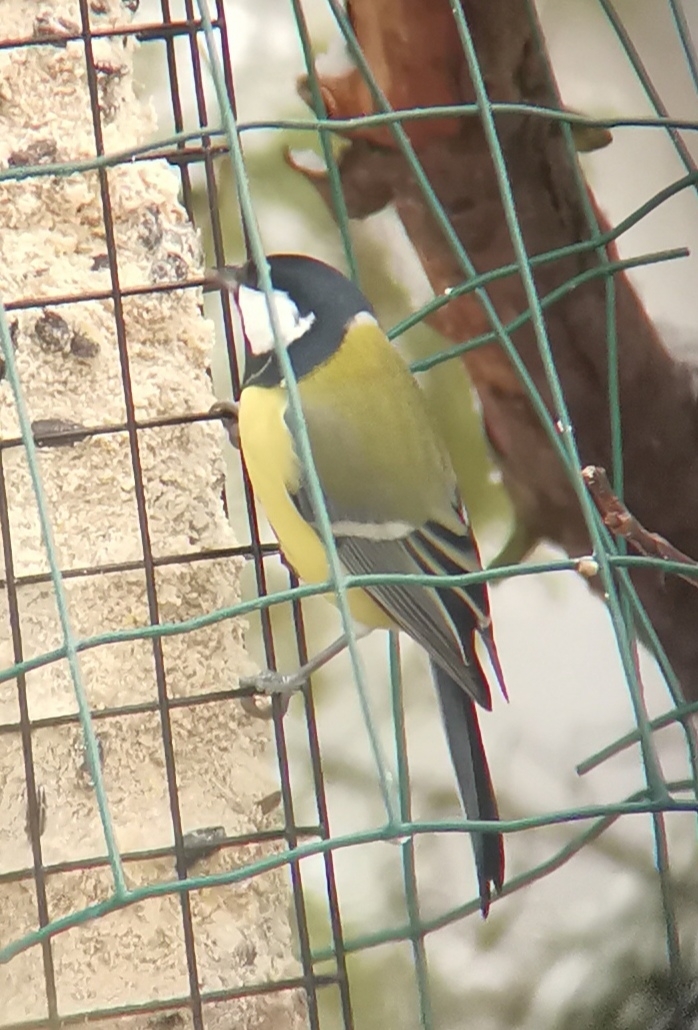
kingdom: Animalia
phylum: Chordata
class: Aves
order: Passeriformes
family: Paridae
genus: Parus
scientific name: Parus major
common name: Great tit
